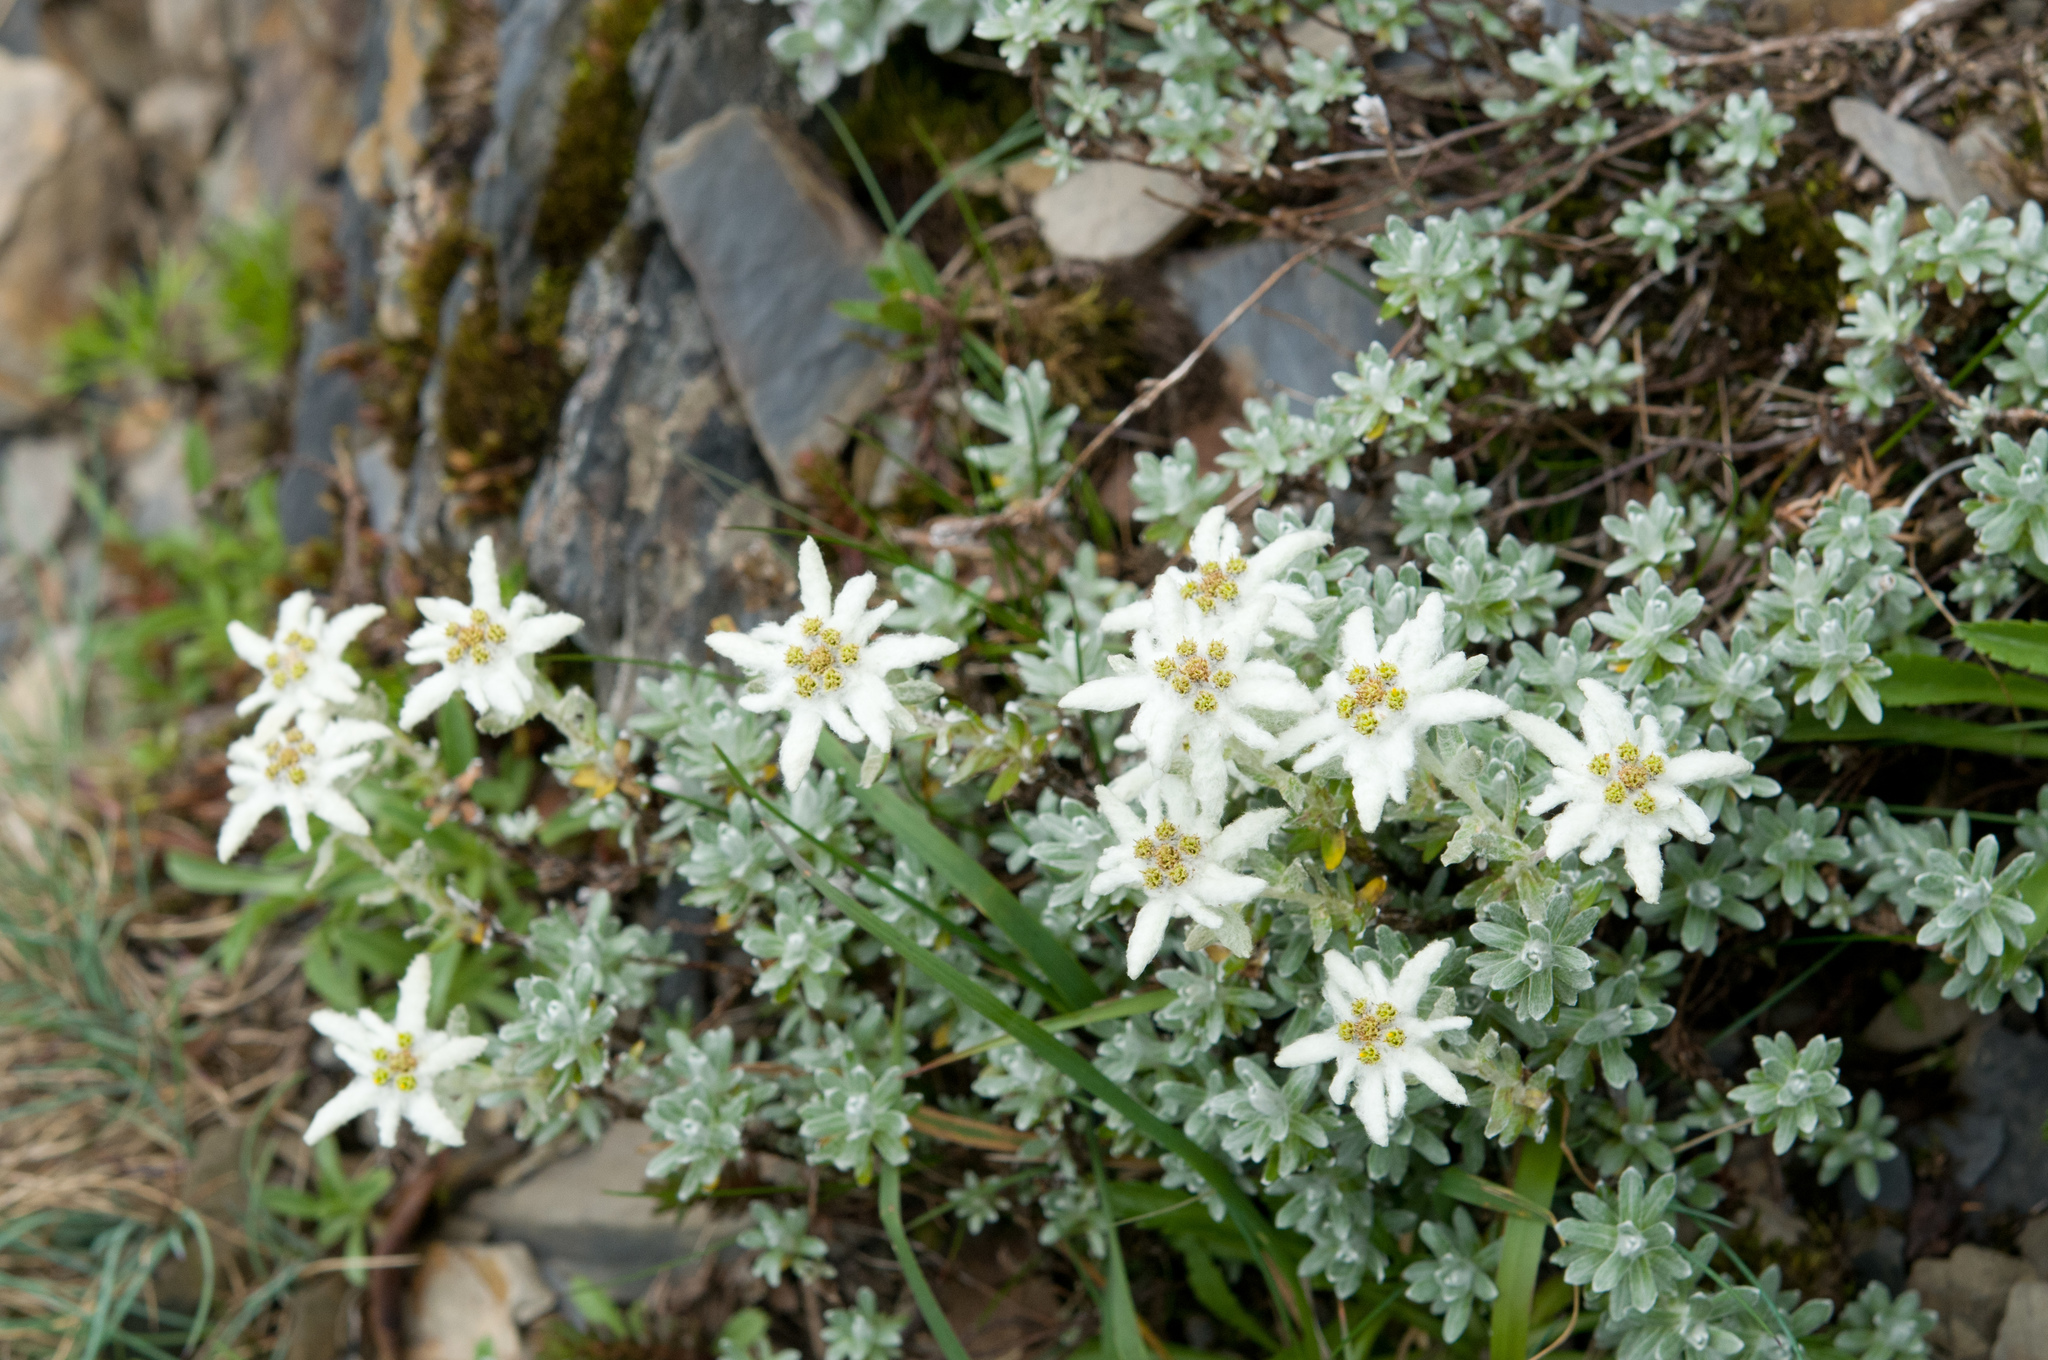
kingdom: Plantae
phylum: Tracheophyta
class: Magnoliopsida
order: Asterales
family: Asteraceae
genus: Leontopodium
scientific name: Leontopodium microphyllum
